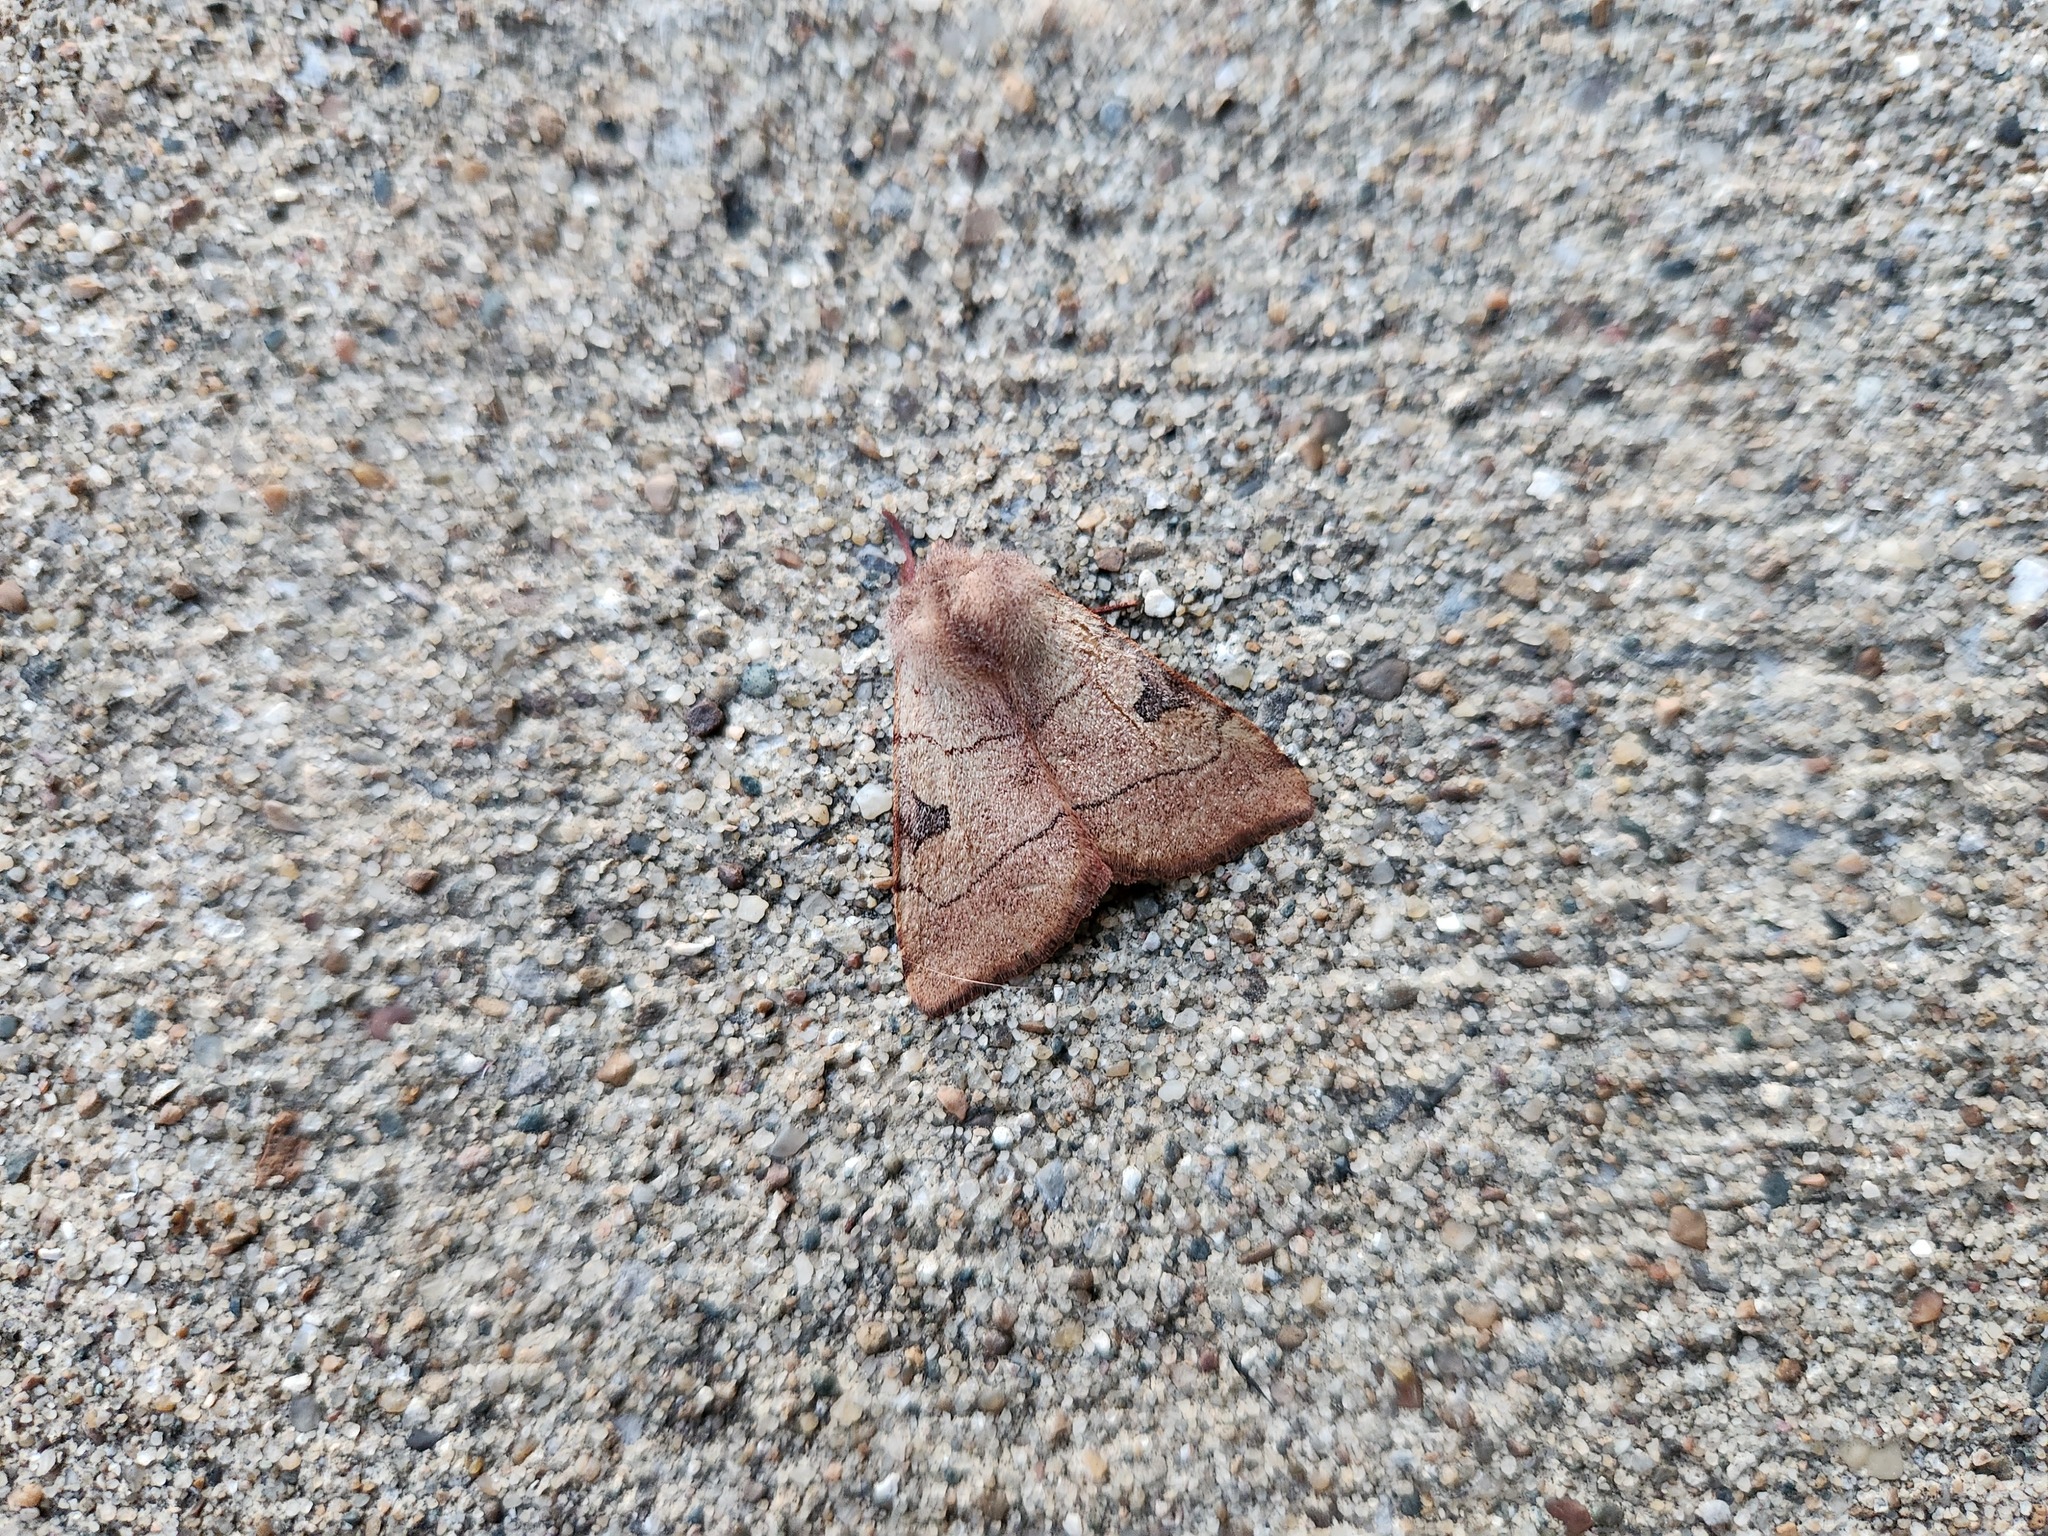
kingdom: Animalia
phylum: Arthropoda
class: Insecta
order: Lepidoptera
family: Noctuidae
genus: Choephora
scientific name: Choephora fungorum
